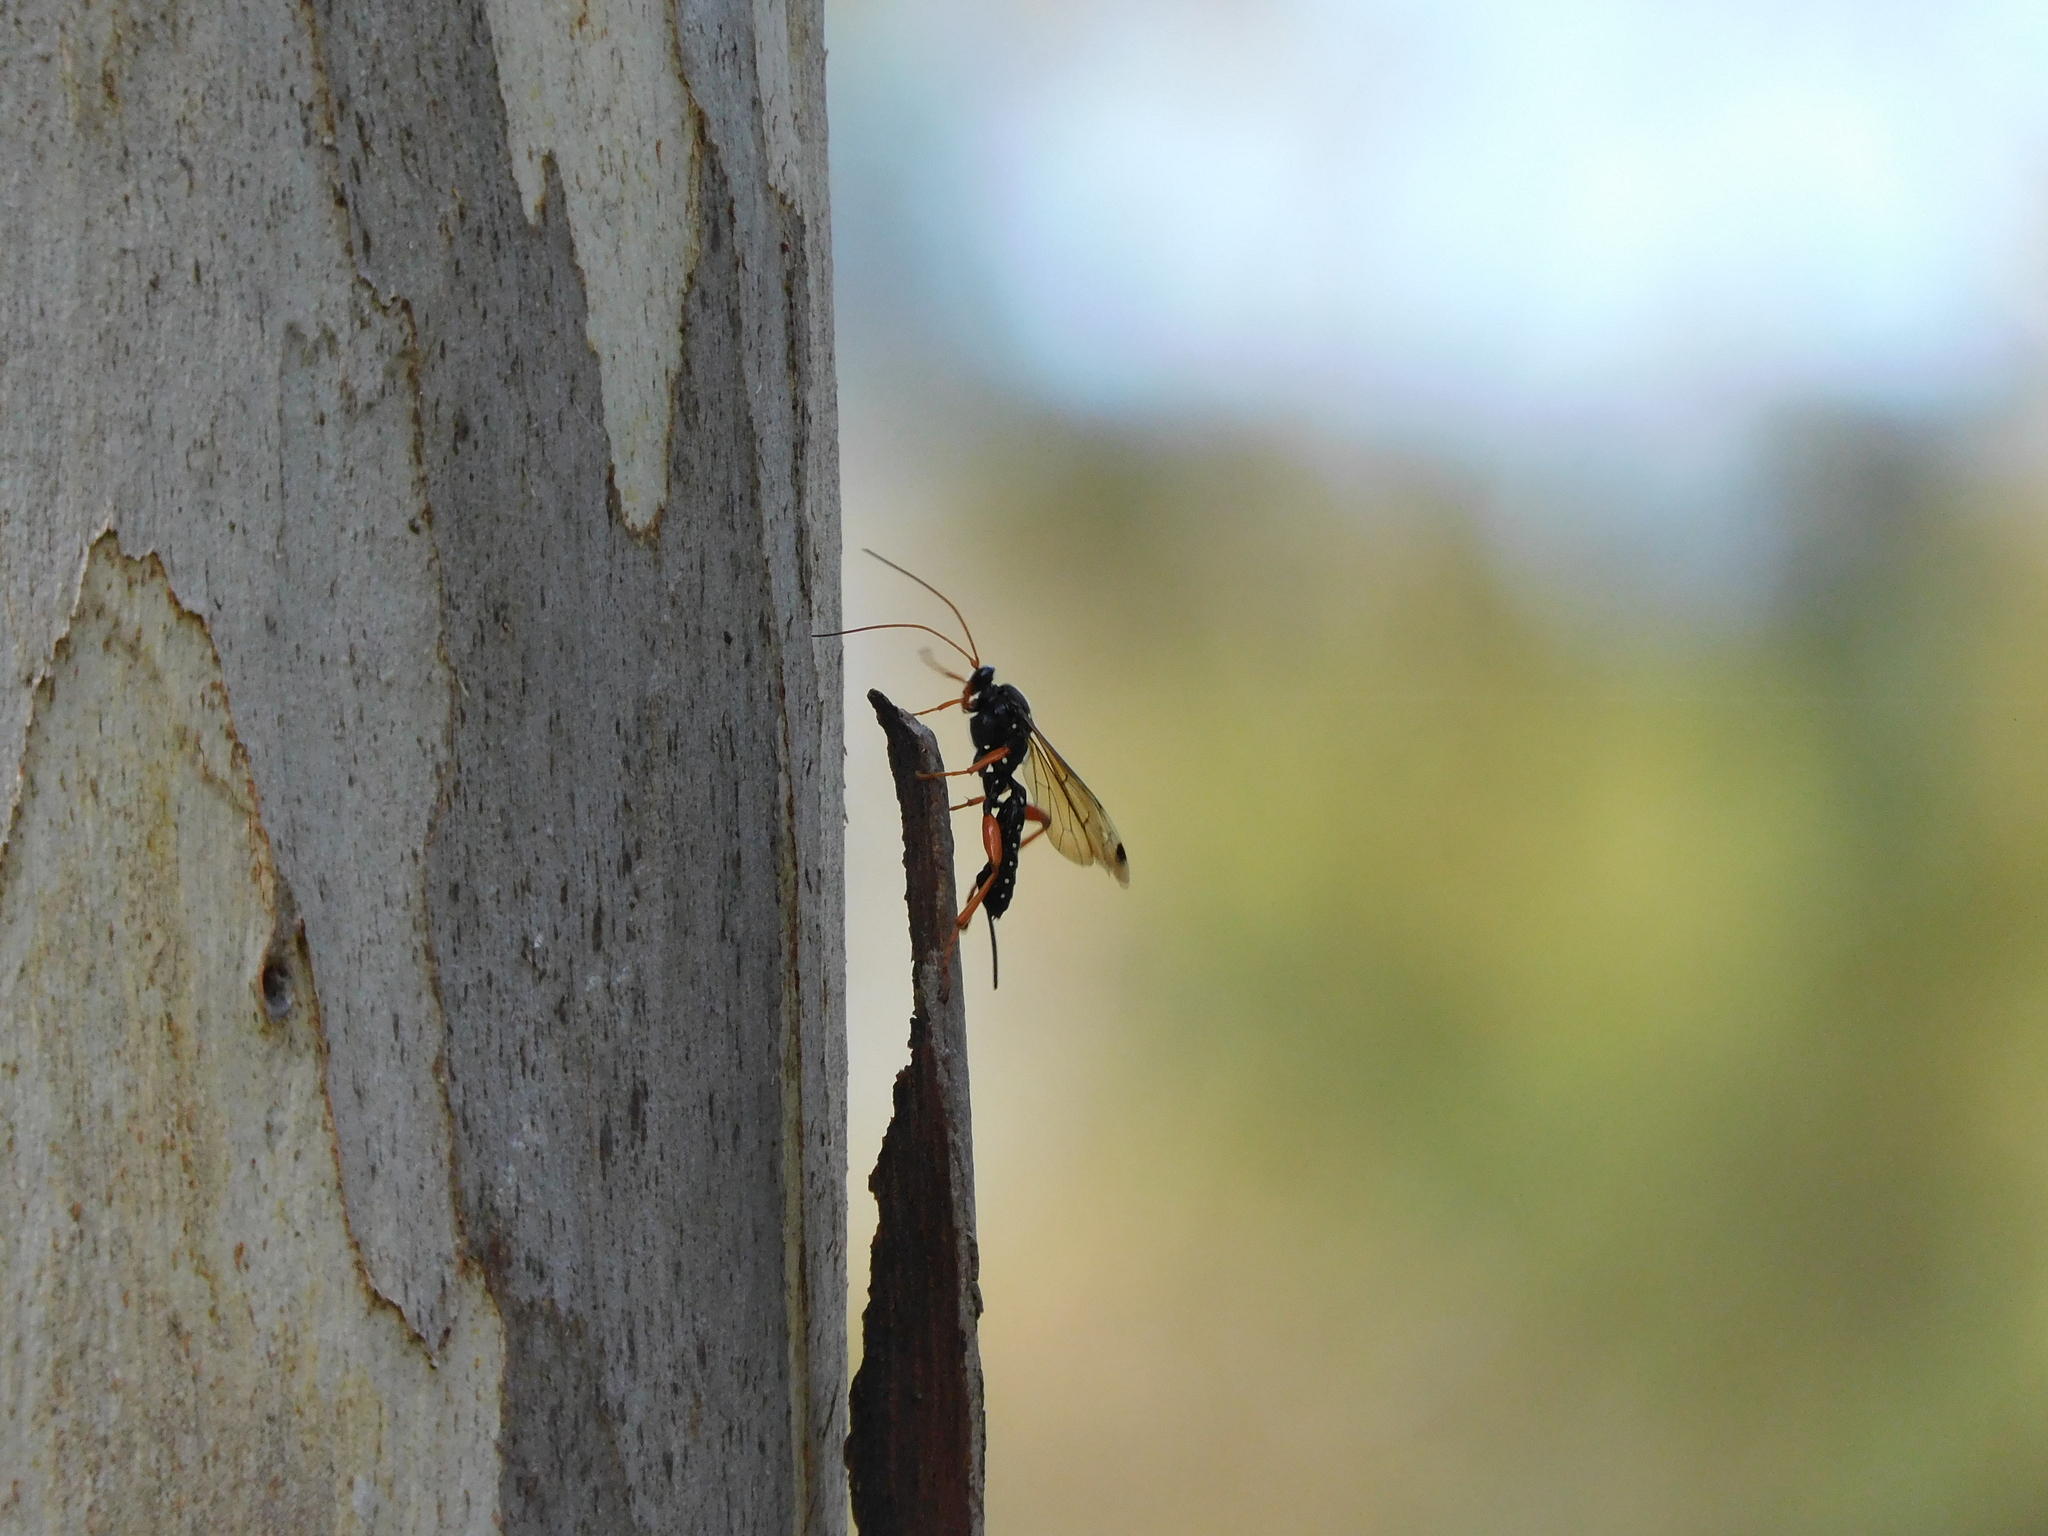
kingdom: Animalia
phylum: Arthropoda
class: Insecta
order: Hymenoptera
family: Ichneumonidae
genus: Echthromorpha
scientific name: Echthromorpha intricatoria
